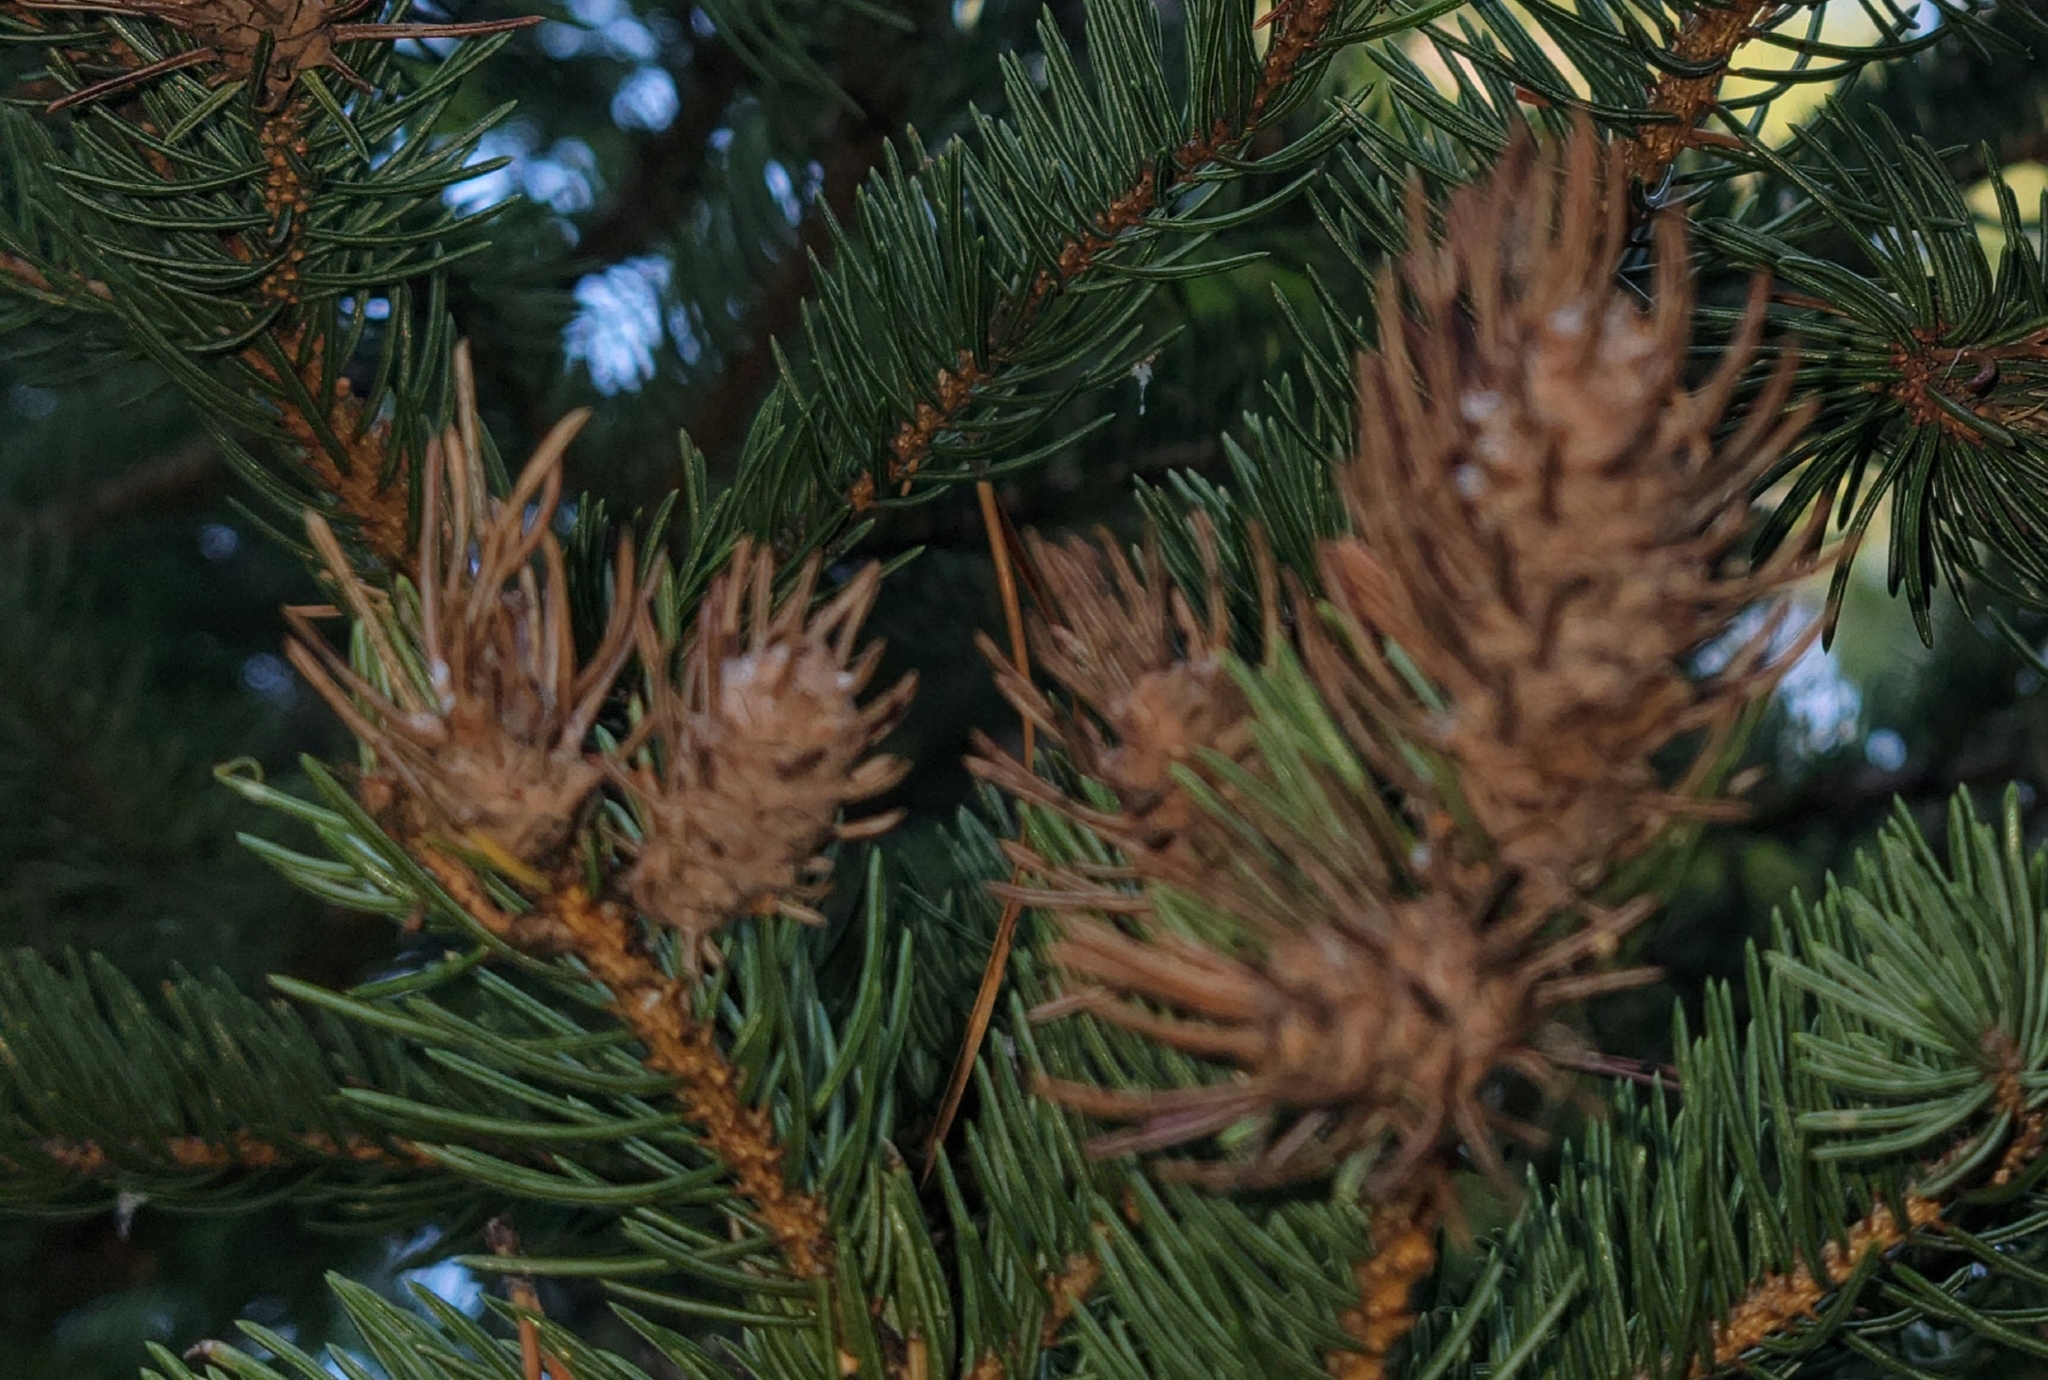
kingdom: Animalia
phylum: Arthropoda
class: Insecta
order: Hemiptera
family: Adelgidae
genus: Adelges
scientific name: Adelges cooleyi
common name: Cooley spruce gall adelgid
